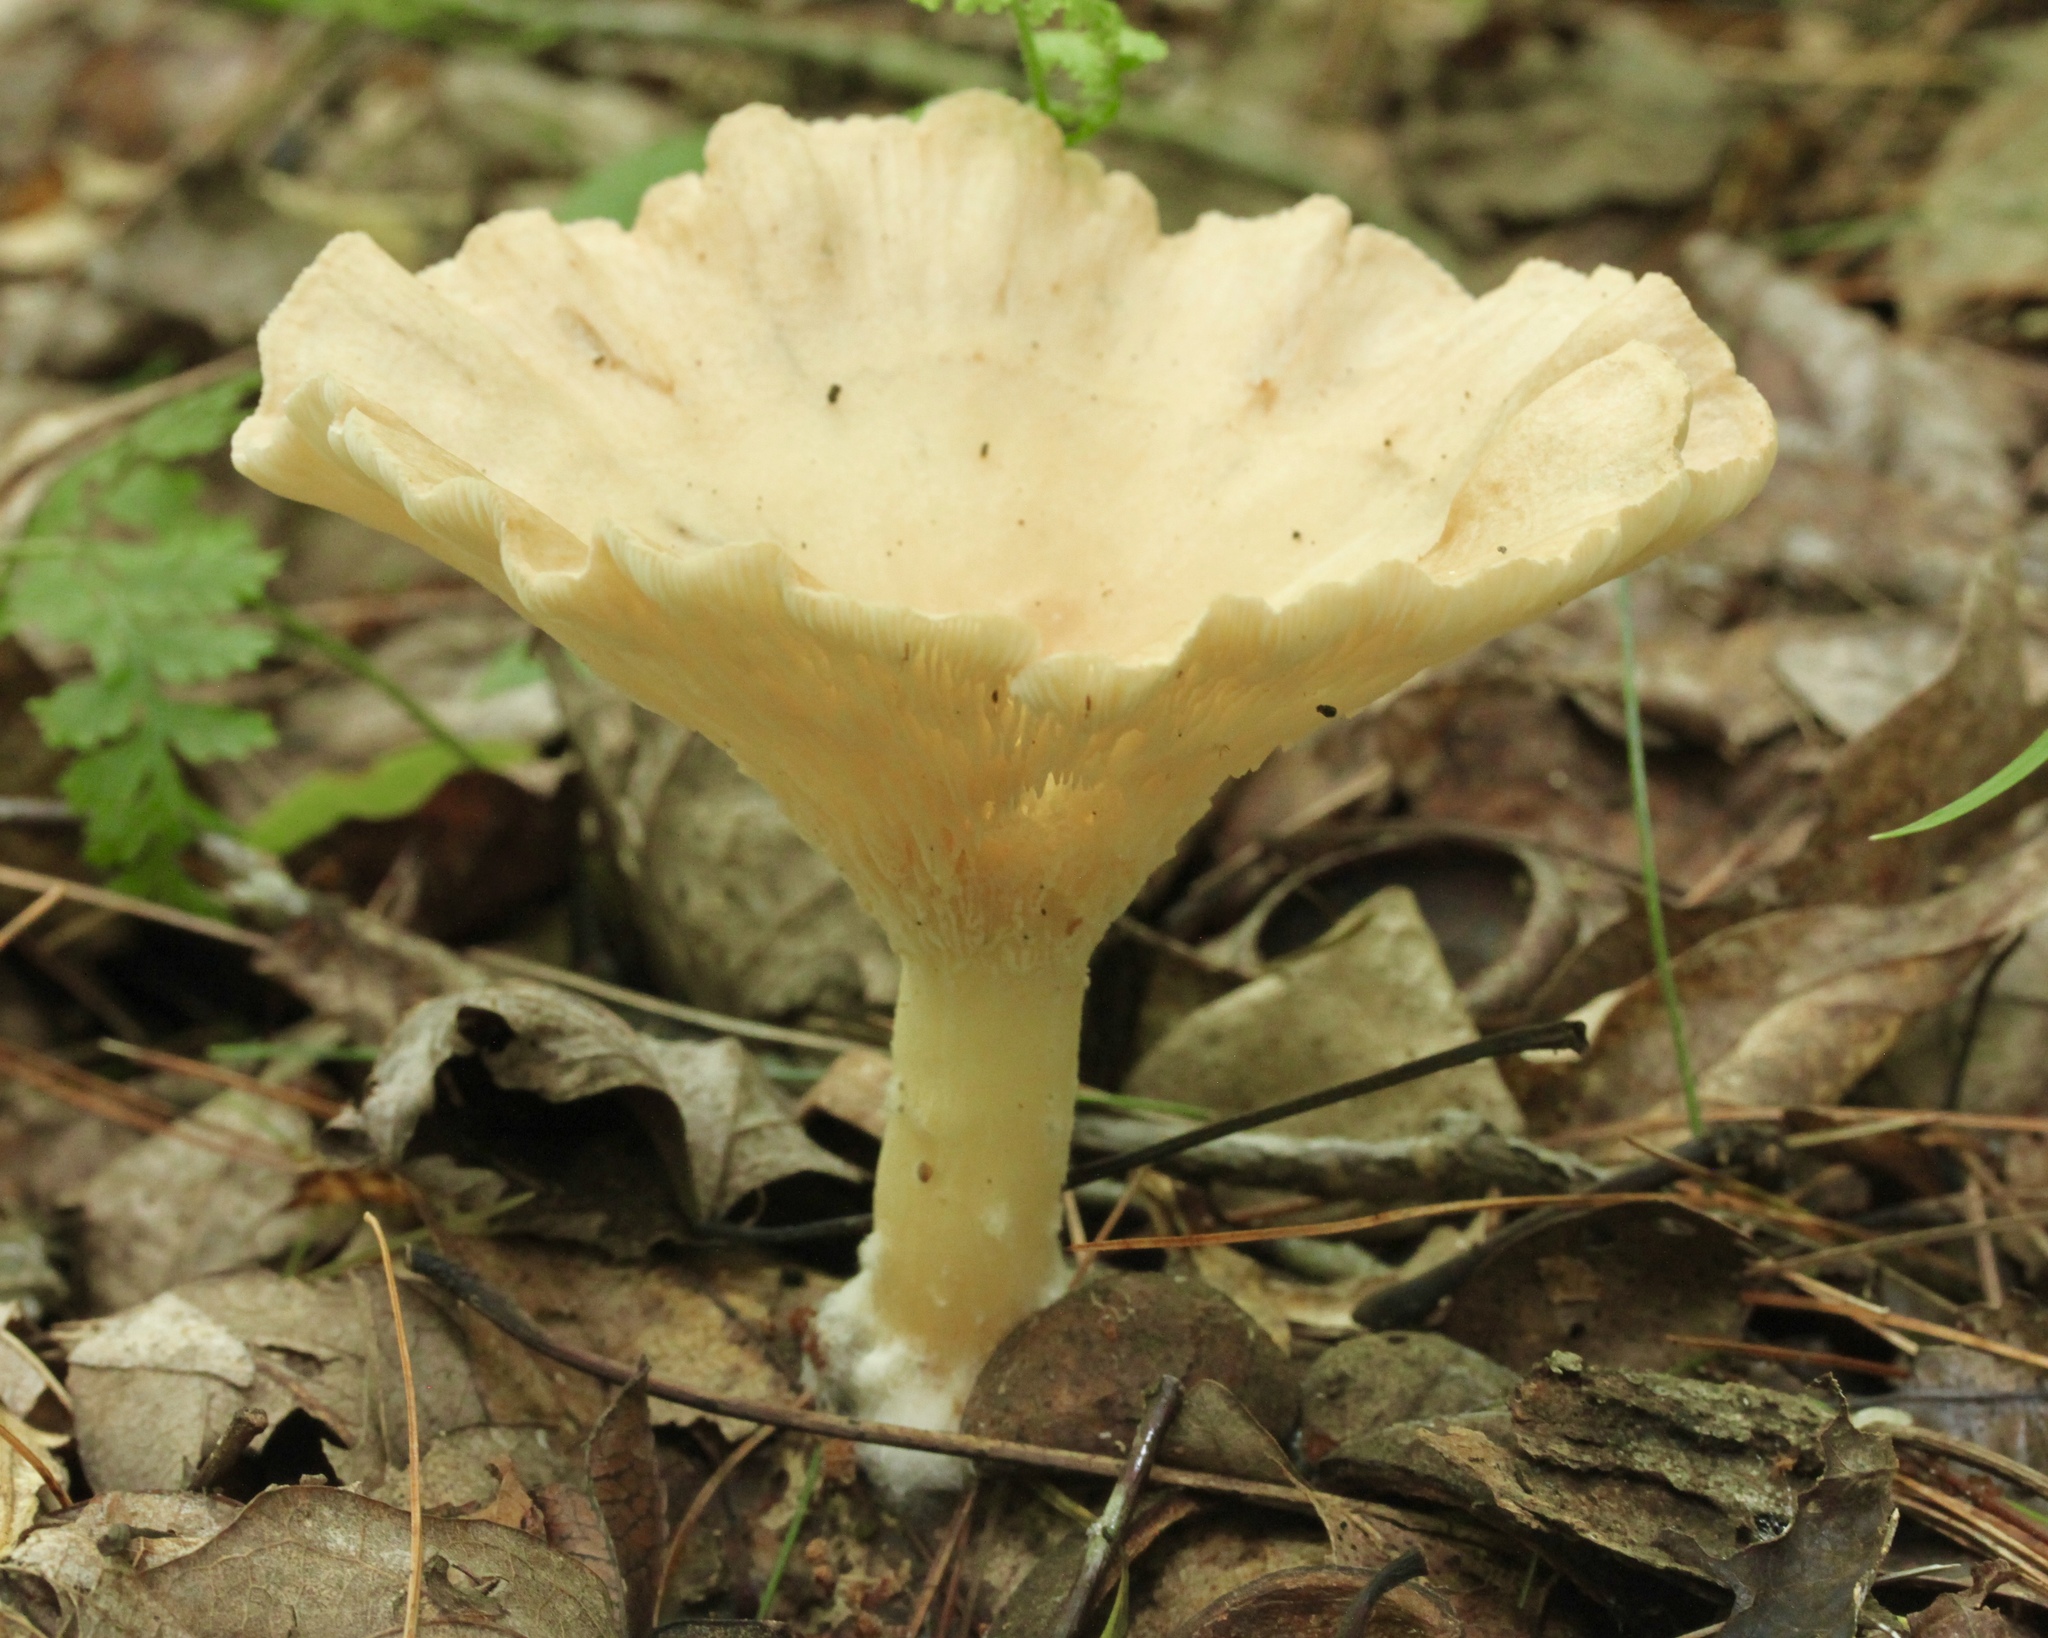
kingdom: Fungi
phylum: Basidiomycota
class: Agaricomycetes
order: Agaricales
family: Tricholomataceae
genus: Infundibulicybe
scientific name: Infundibulicybe gibba
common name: Common funnel
